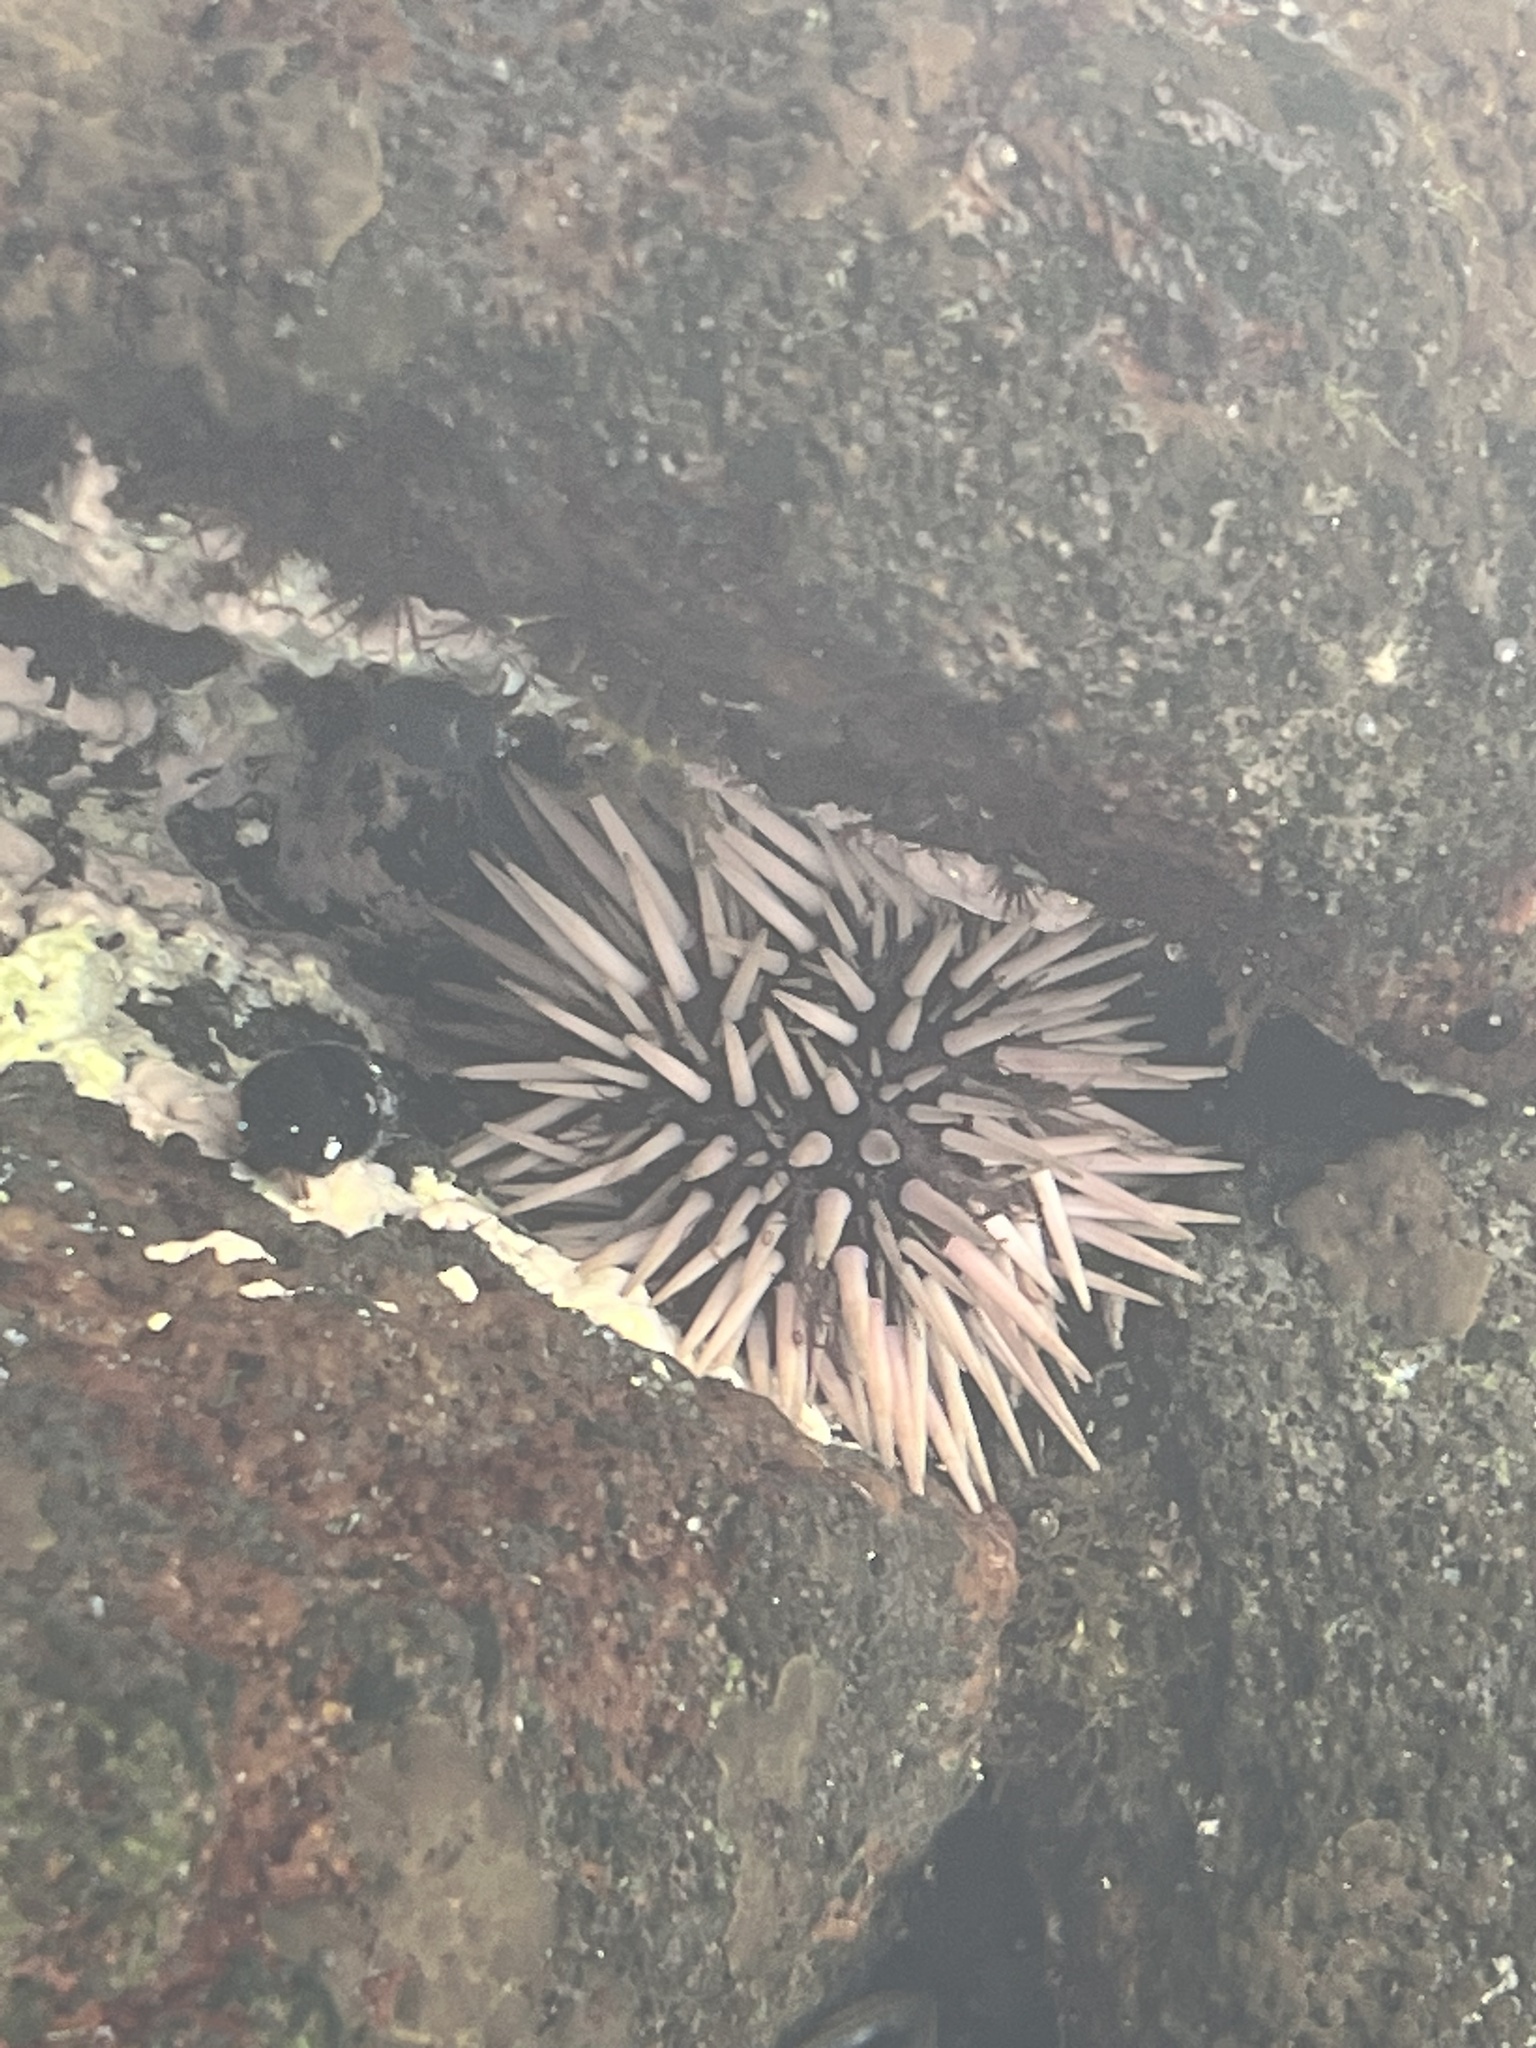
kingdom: Animalia
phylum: Echinodermata
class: Echinoidea
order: Camarodonta
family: Echinometridae
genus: Echinometra
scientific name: Echinometra mathaei
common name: Rock-boring urchin
